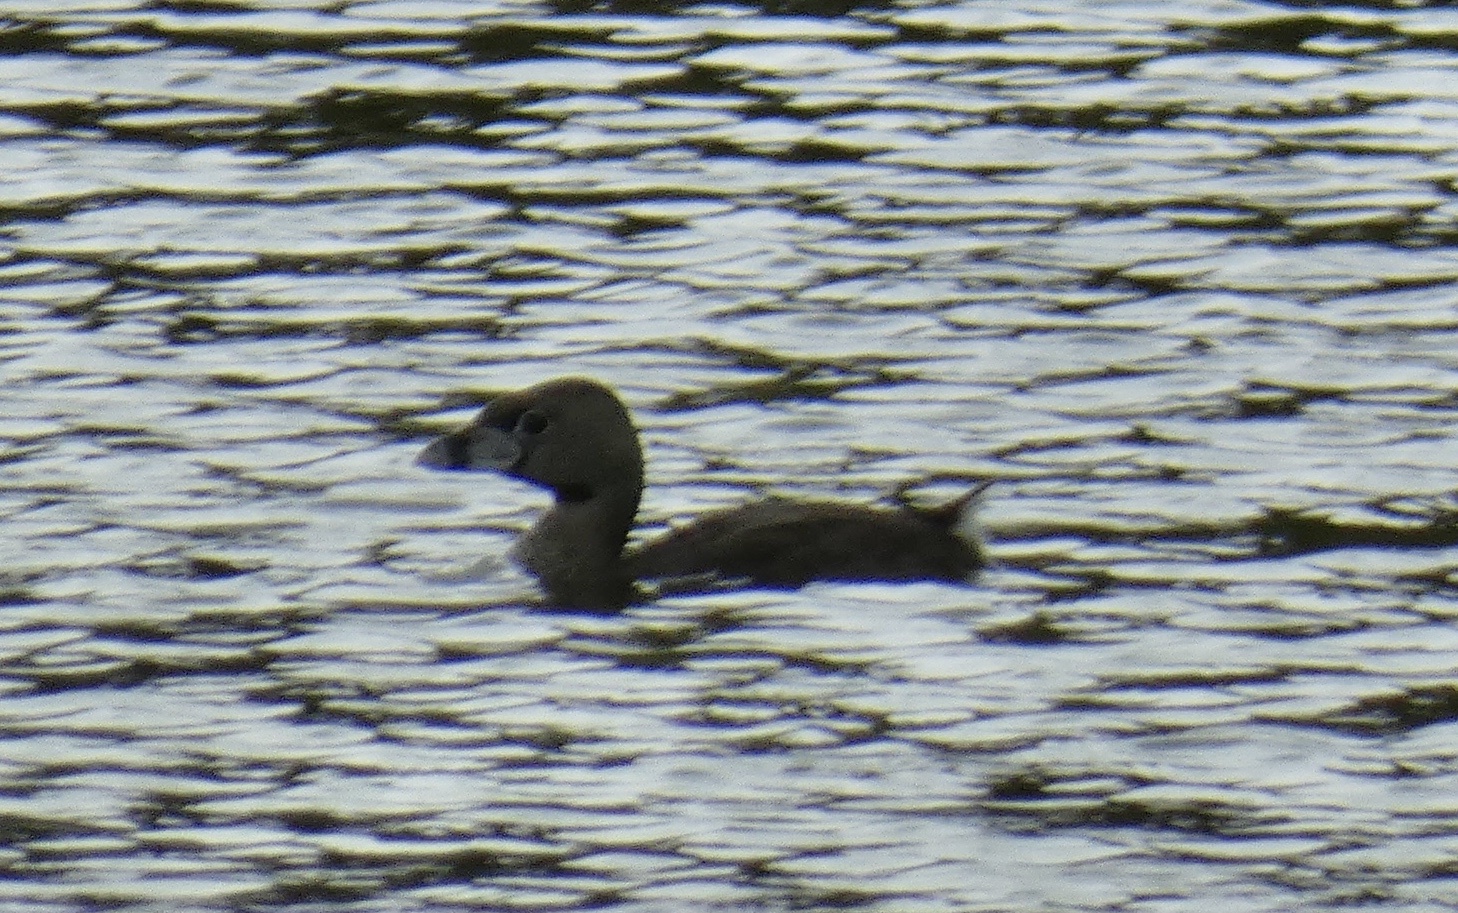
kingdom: Animalia
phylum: Chordata
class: Aves
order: Podicipediformes
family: Podicipedidae
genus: Podilymbus
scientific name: Podilymbus podiceps
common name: Pied-billed grebe
